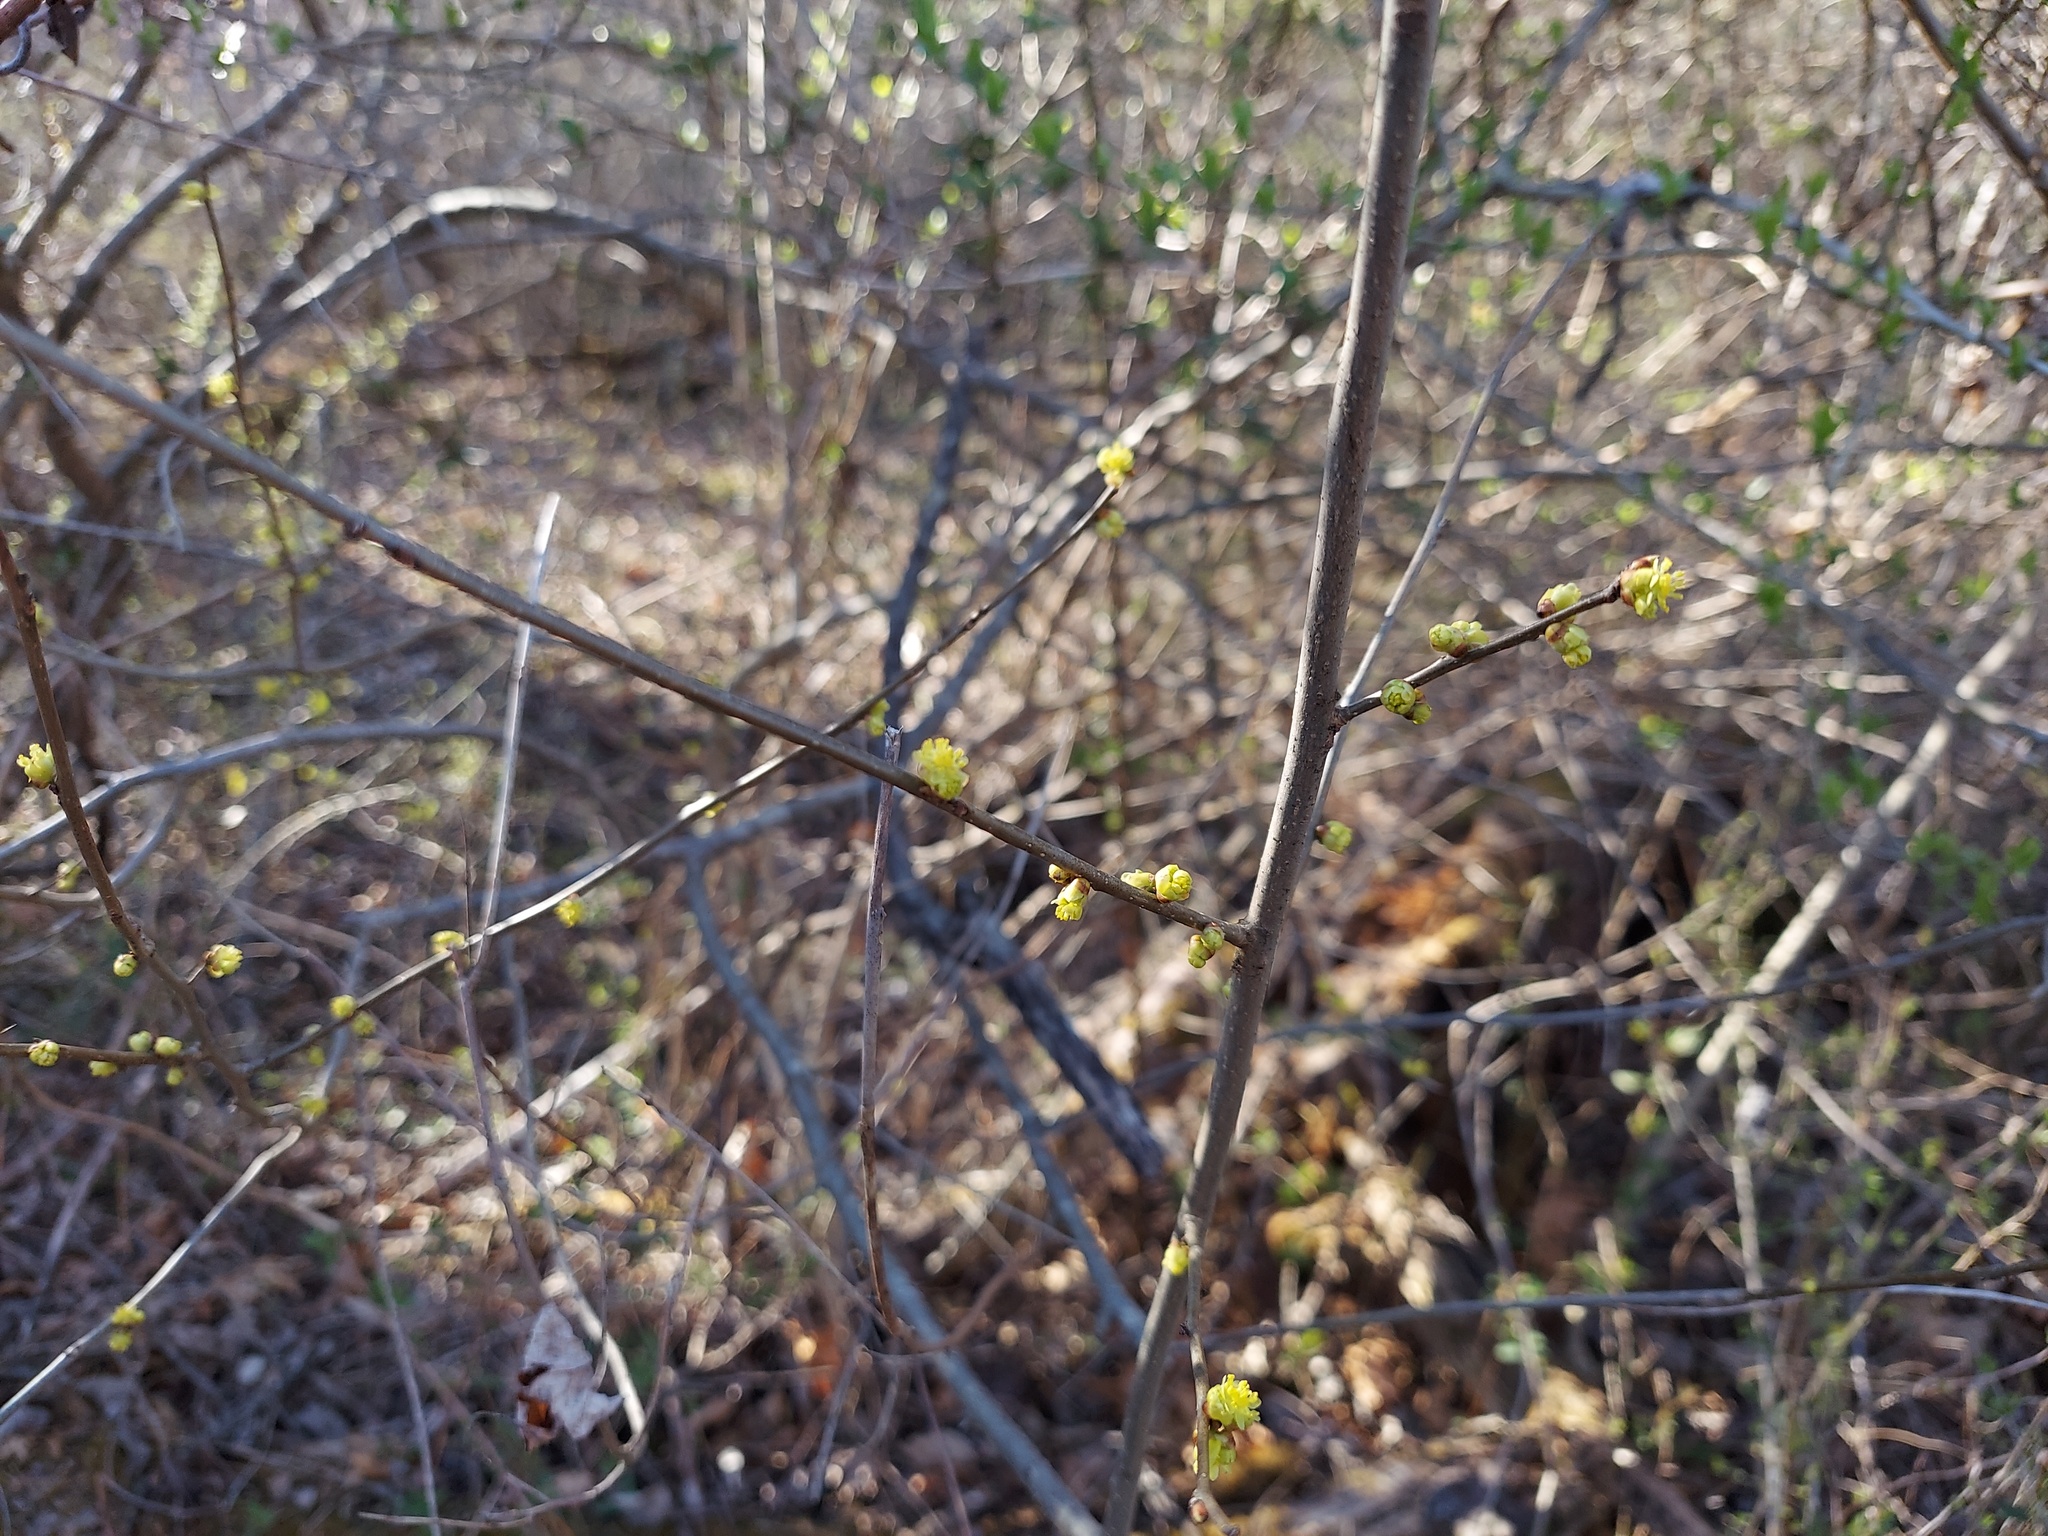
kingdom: Plantae
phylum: Tracheophyta
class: Magnoliopsida
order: Laurales
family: Lauraceae
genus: Lindera
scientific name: Lindera benzoin
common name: Spicebush
